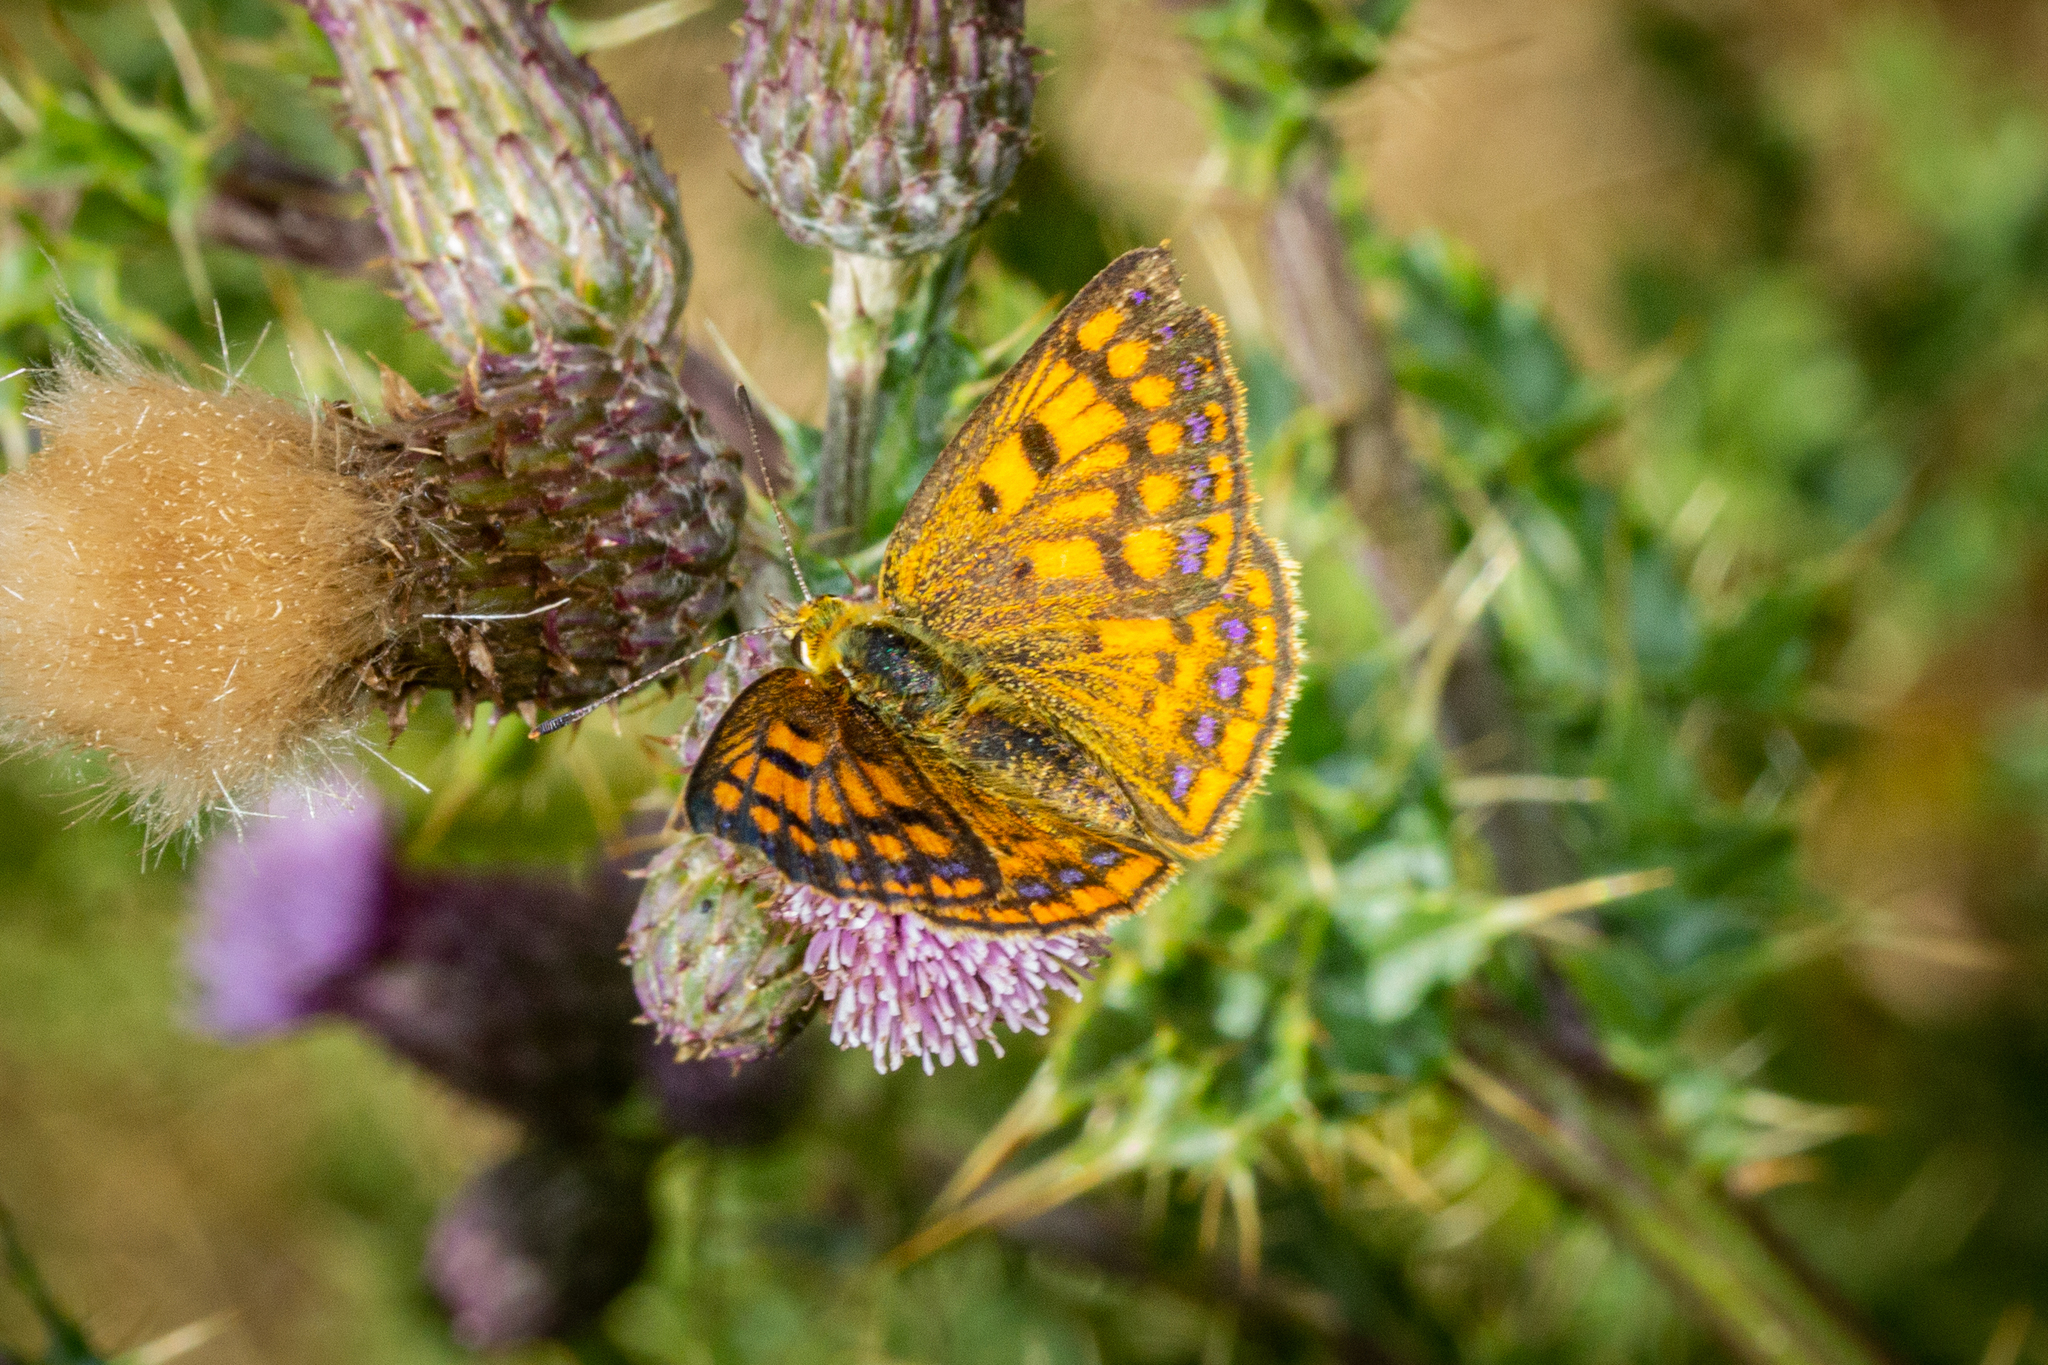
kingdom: Animalia
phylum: Arthropoda
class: Insecta
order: Lepidoptera
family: Lycaenidae
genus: Lycaena
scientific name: Lycaena
